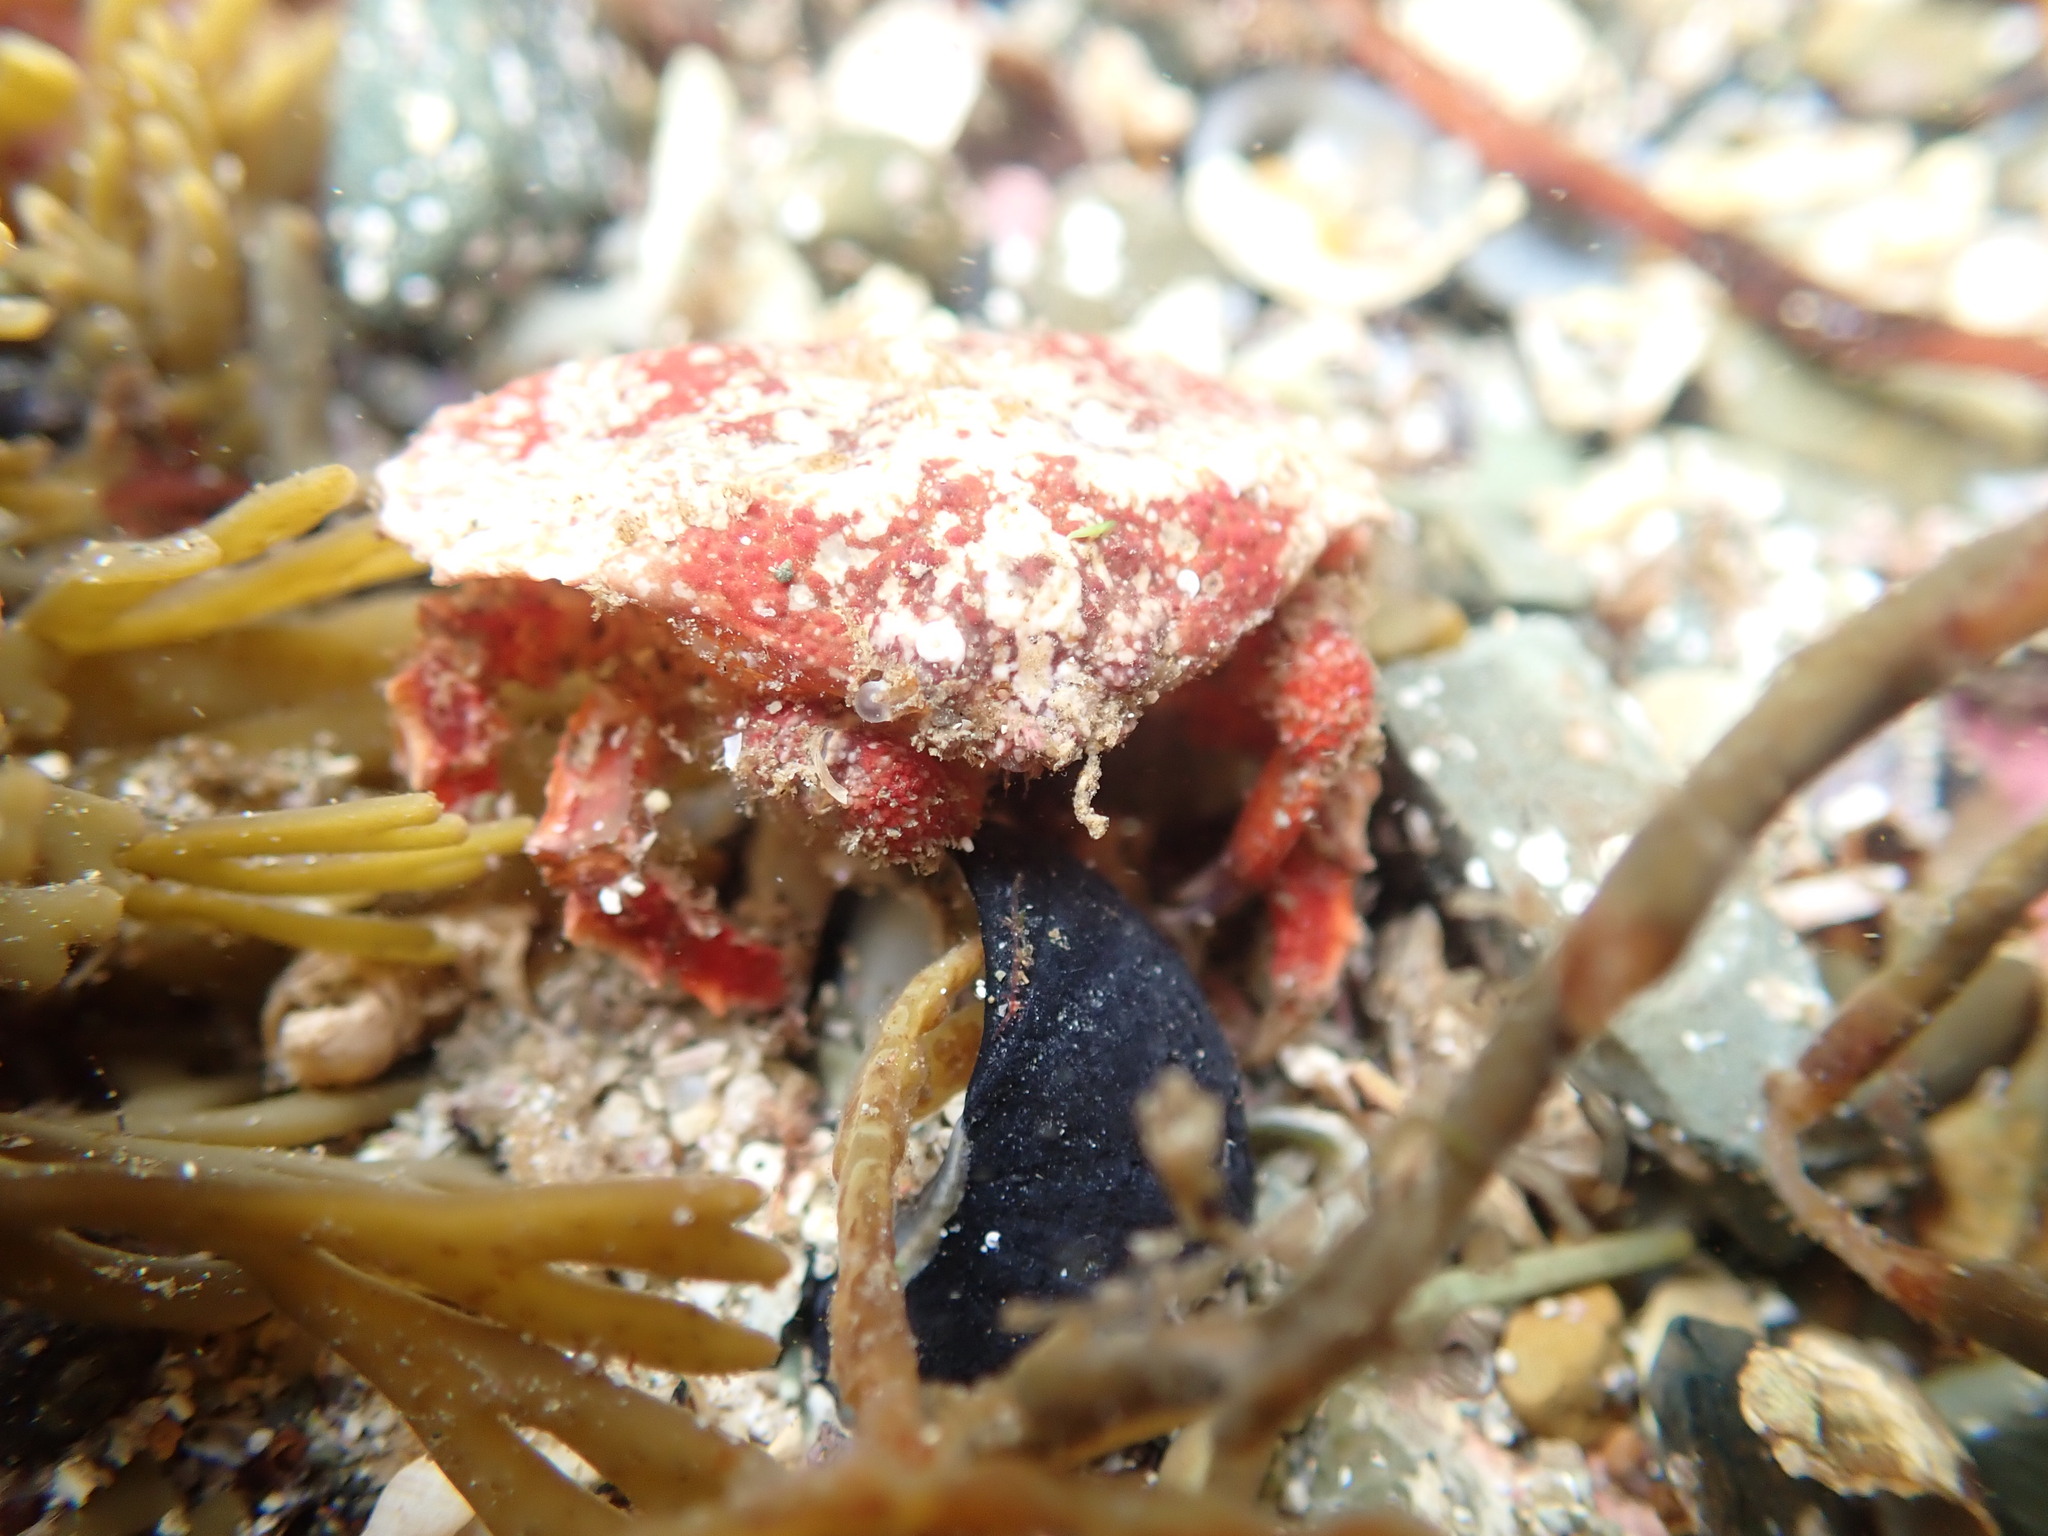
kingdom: Animalia
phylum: Arthropoda
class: Malacostraca
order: Decapoda
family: Majidae
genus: Eurynolambrus
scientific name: Eurynolambrus australis
